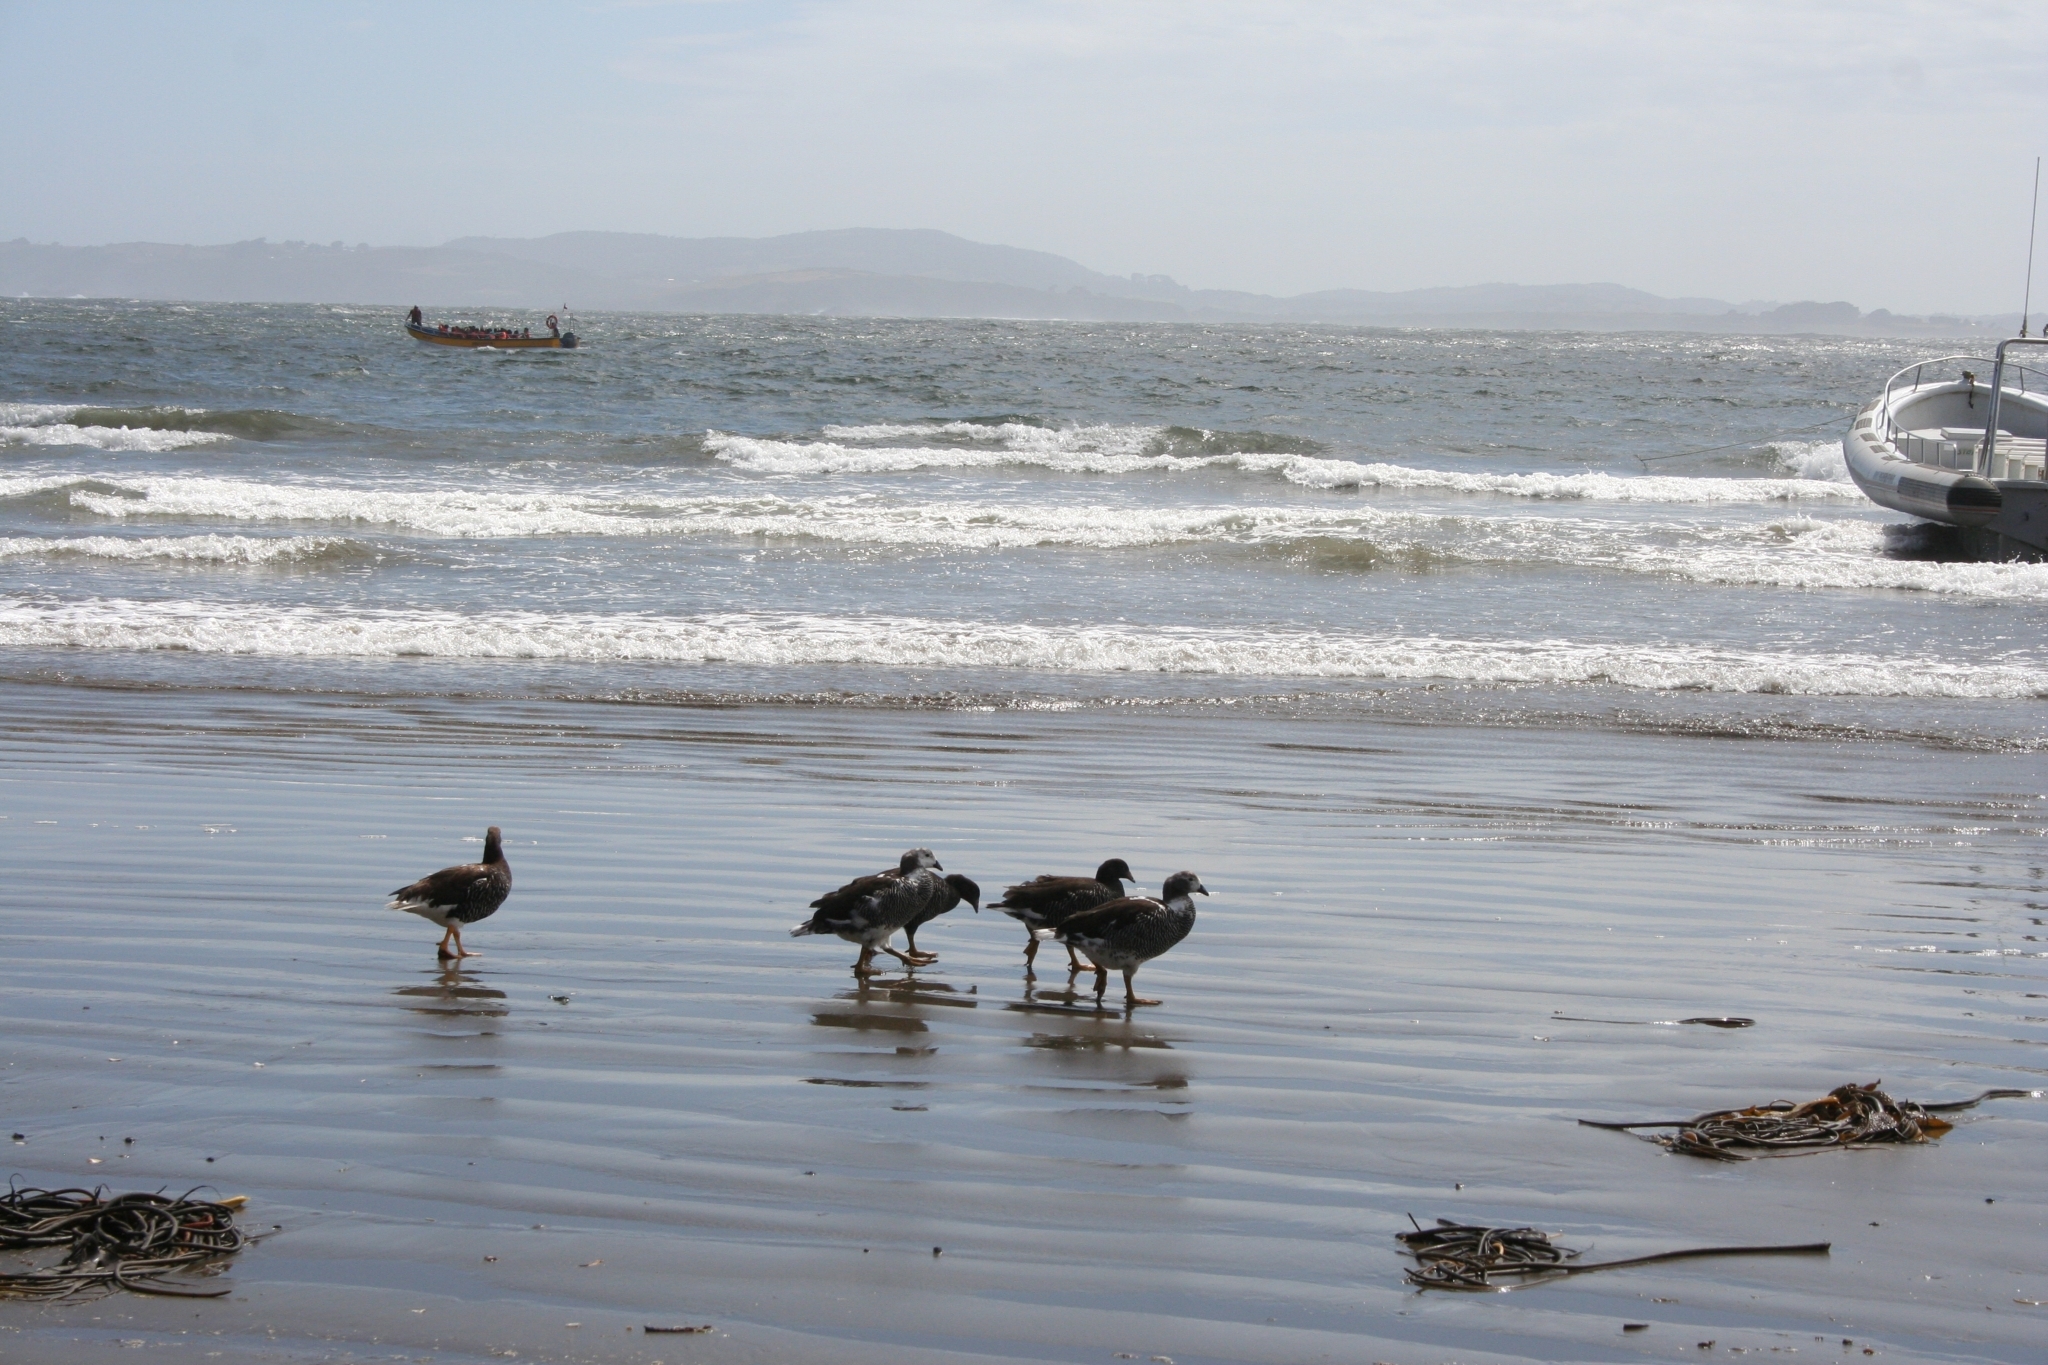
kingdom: Animalia
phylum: Chordata
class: Aves
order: Anseriformes
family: Anatidae
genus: Tachyeres
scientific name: Tachyeres pteneres
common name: Fuegian steamer duck
